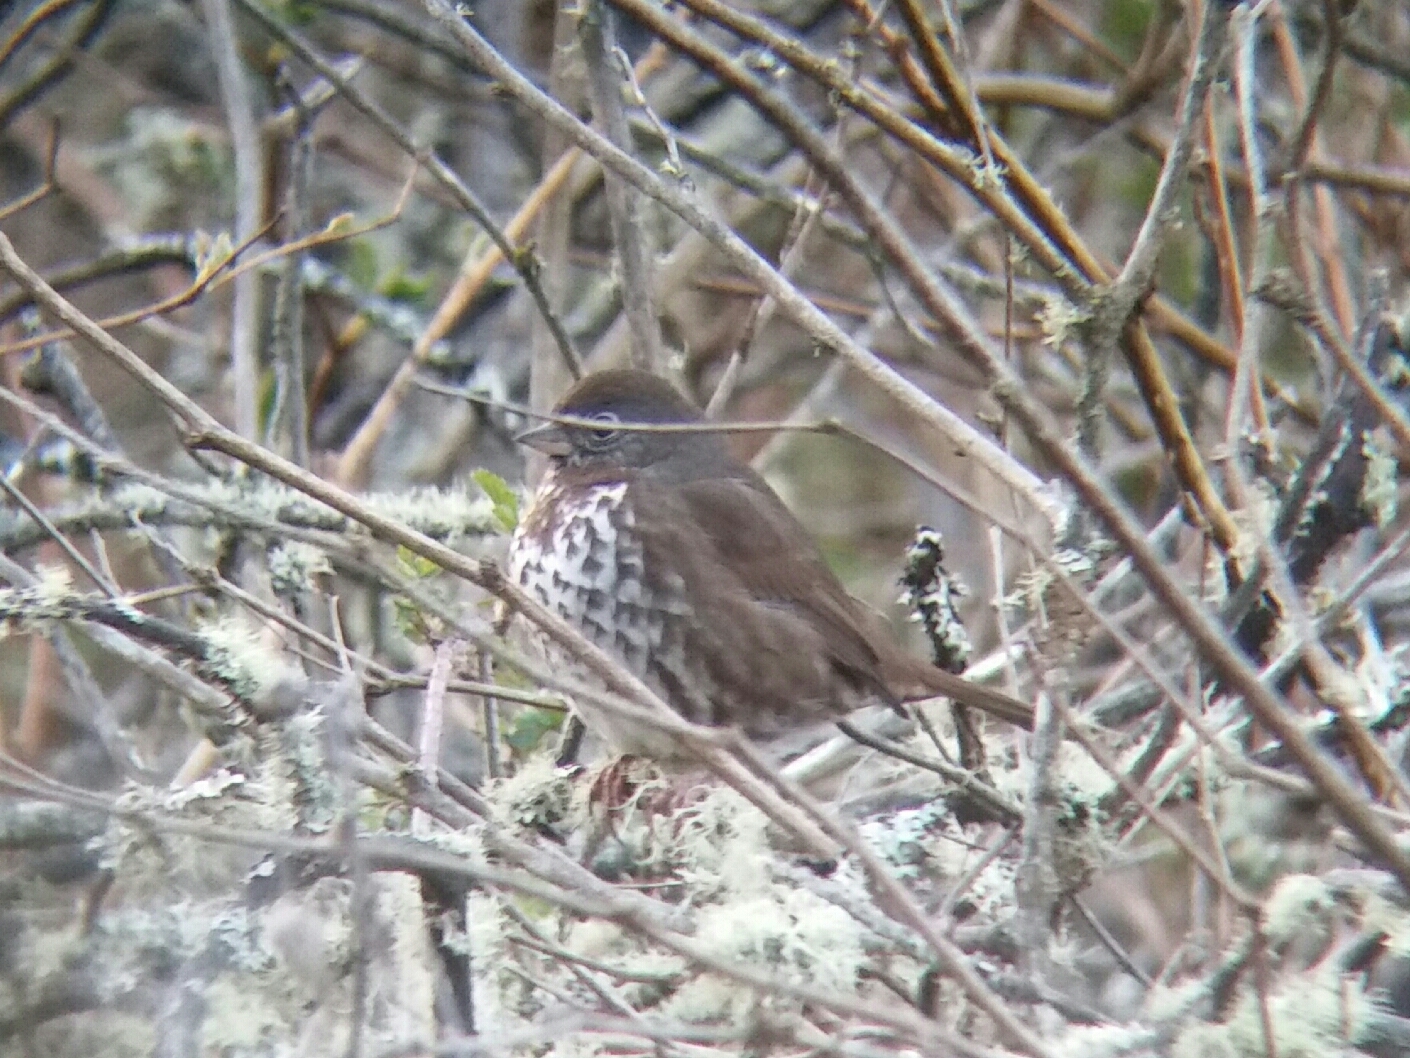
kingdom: Animalia
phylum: Chordata
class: Aves
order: Passeriformes
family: Passerellidae
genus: Passerella
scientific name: Passerella iliaca
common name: Fox sparrow
